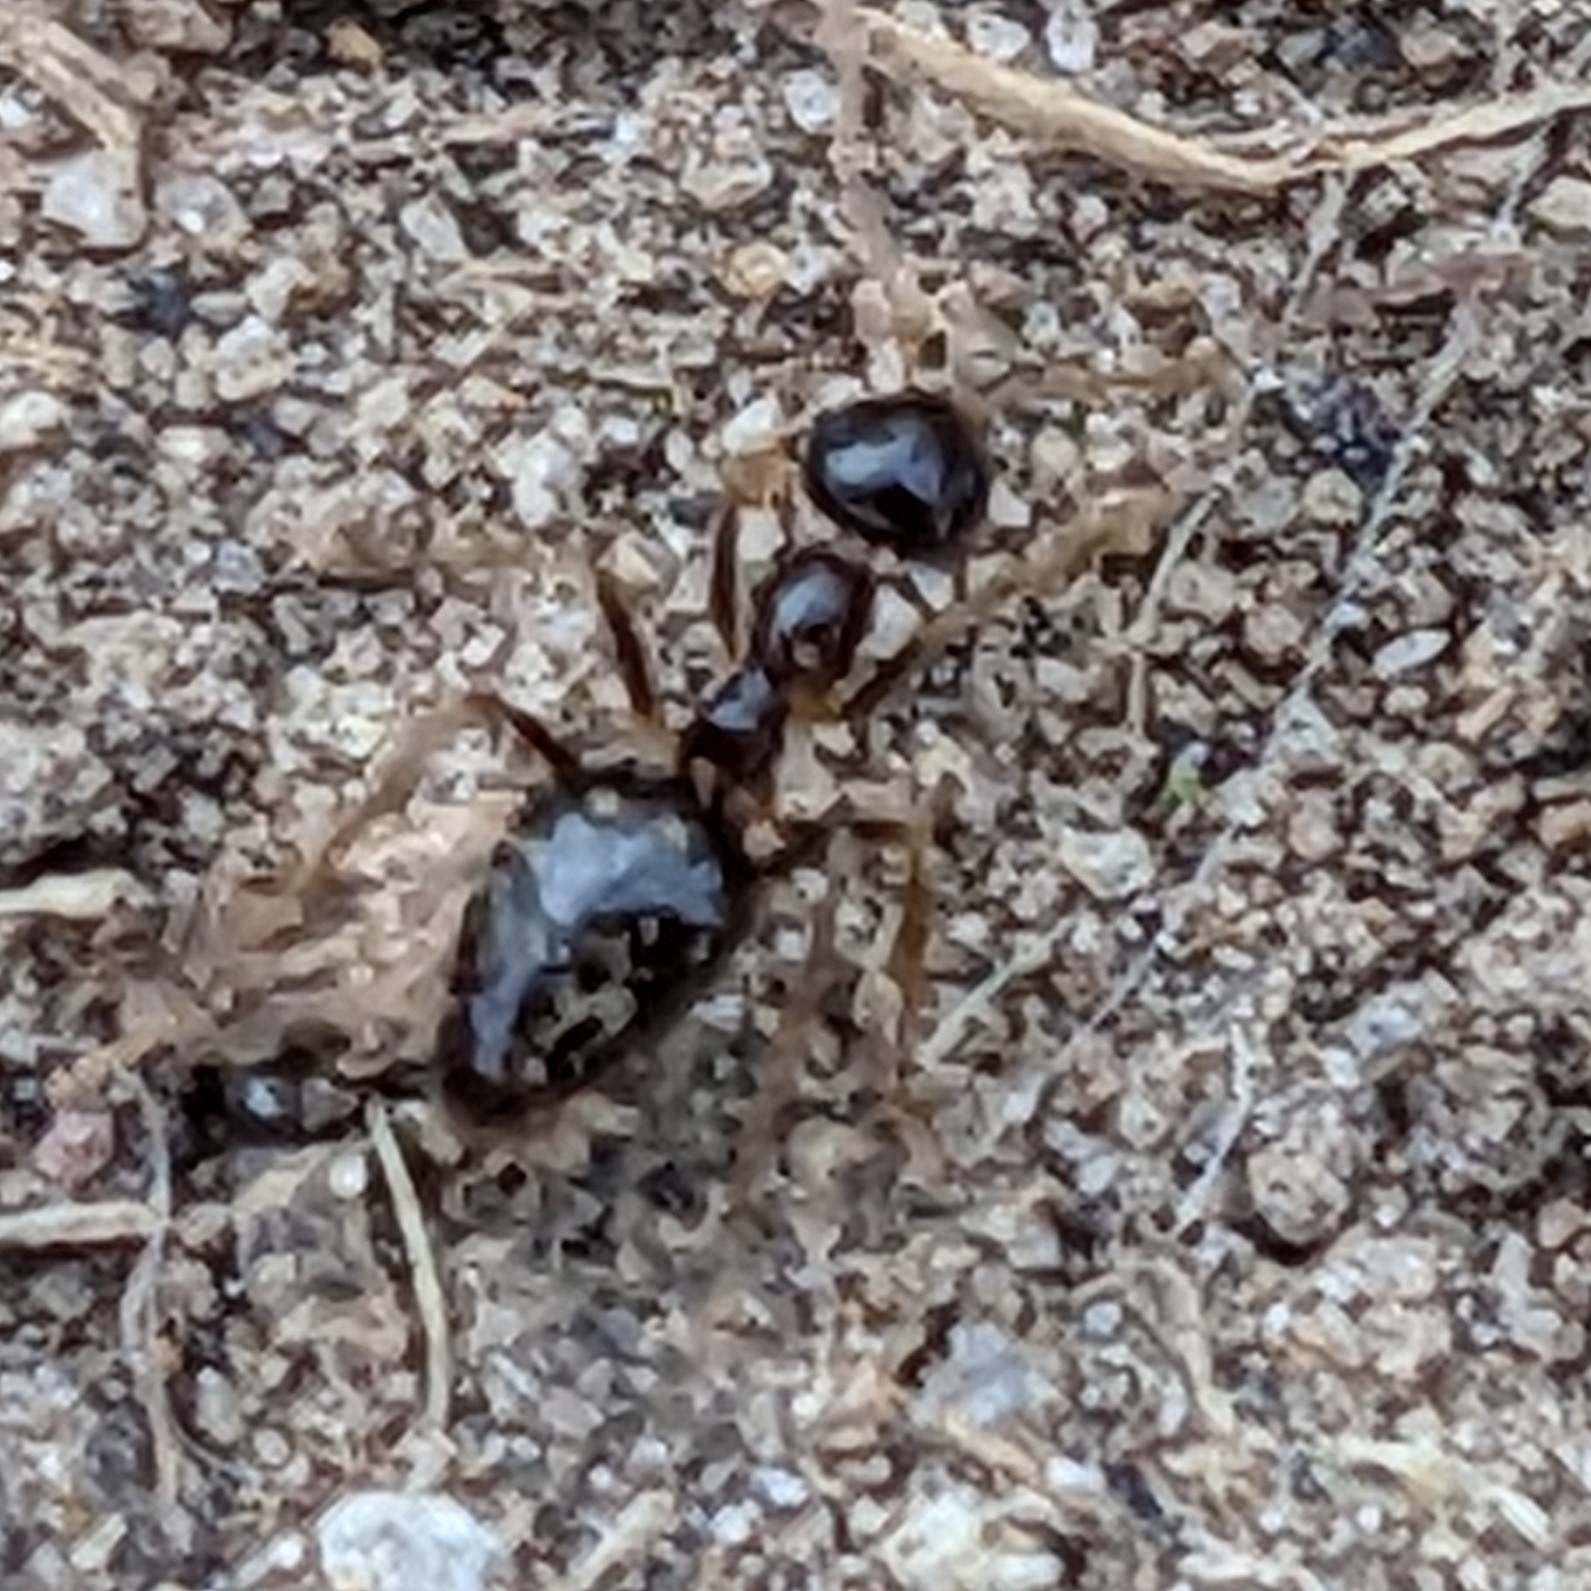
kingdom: Animalia
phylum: Arthropoda
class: Insecta
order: Hymenoptera
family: Formicidae
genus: Prenolepis
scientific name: Prenolepis imparis
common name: Small honey ant
